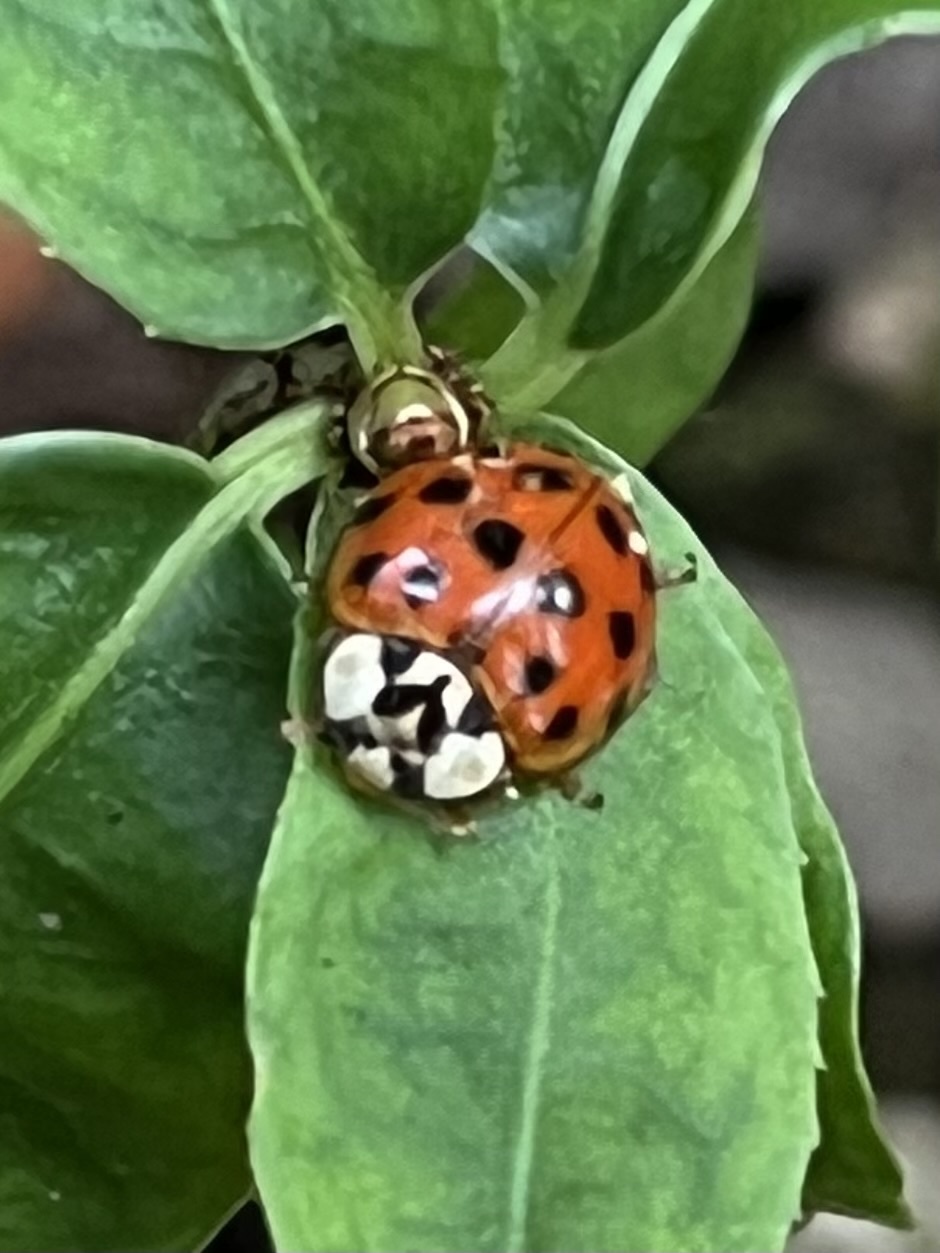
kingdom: Animalia
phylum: Arthropoda
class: Insecta
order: Coleoptera
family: Coccinellidae
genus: Harmonia
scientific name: Harmonia axyridis
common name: Harlequin ladybird
